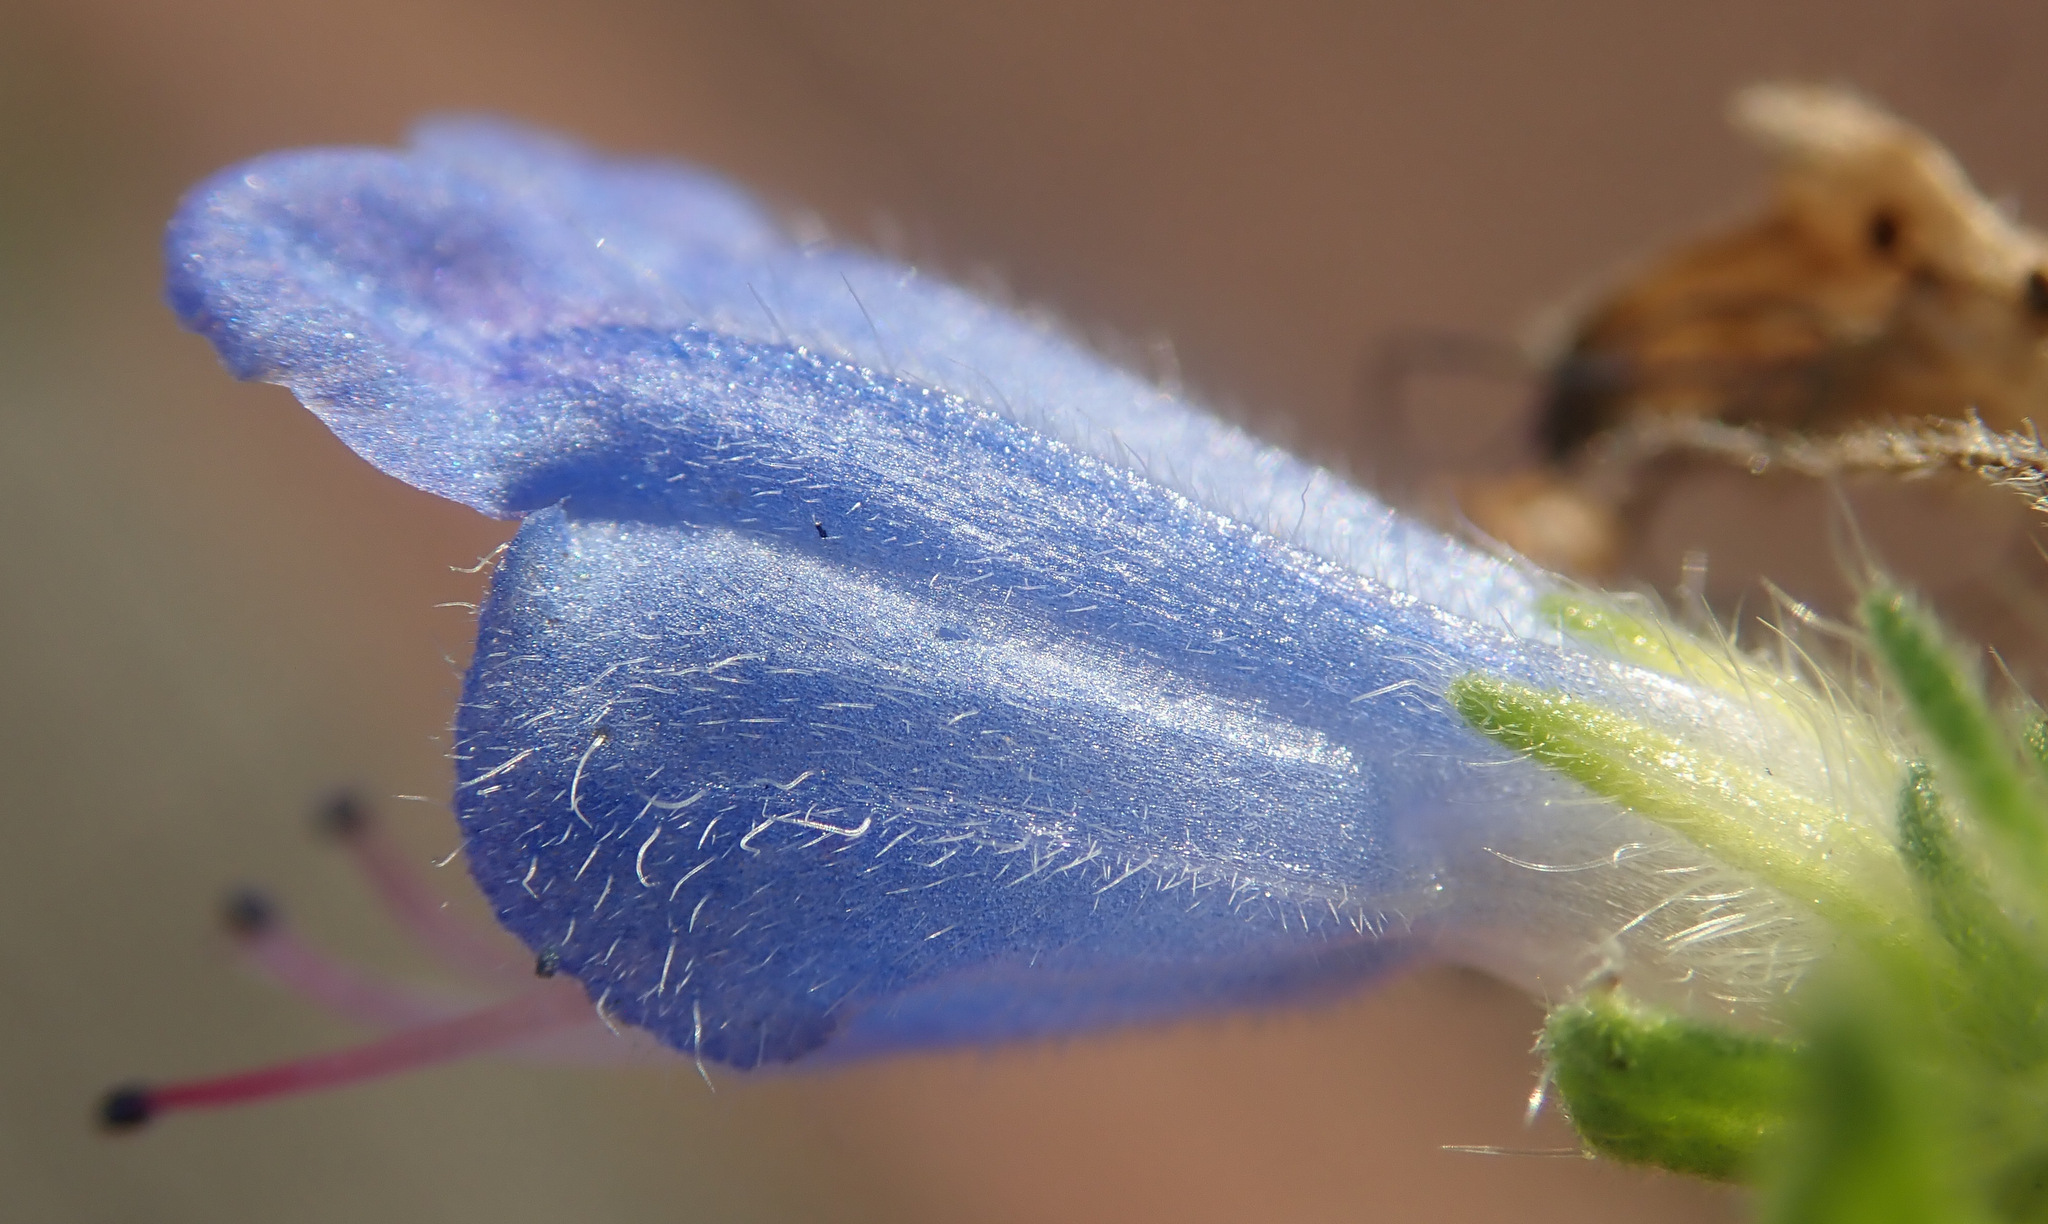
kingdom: Plantae
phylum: Tracheophyta
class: Magnoliopsida
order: Boraginales
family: Boraginaceae
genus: Echium
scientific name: Echium vulgare
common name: Common viper's bugloss
